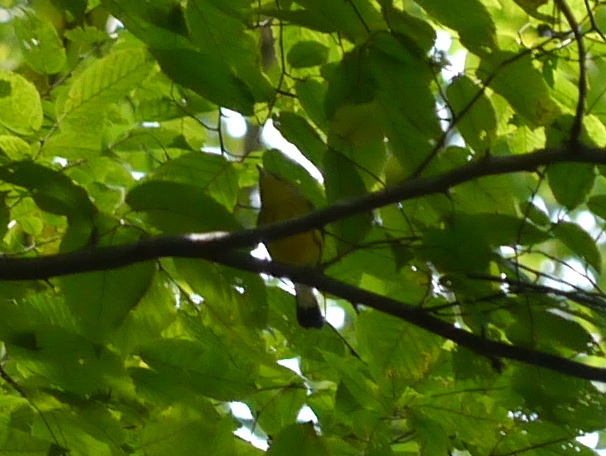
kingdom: Animalia
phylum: Chordata
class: Aves
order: Passeriformes
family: Parulidae
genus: Setophaga
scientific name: Setophaga magnolia
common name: Magnolia warbler
